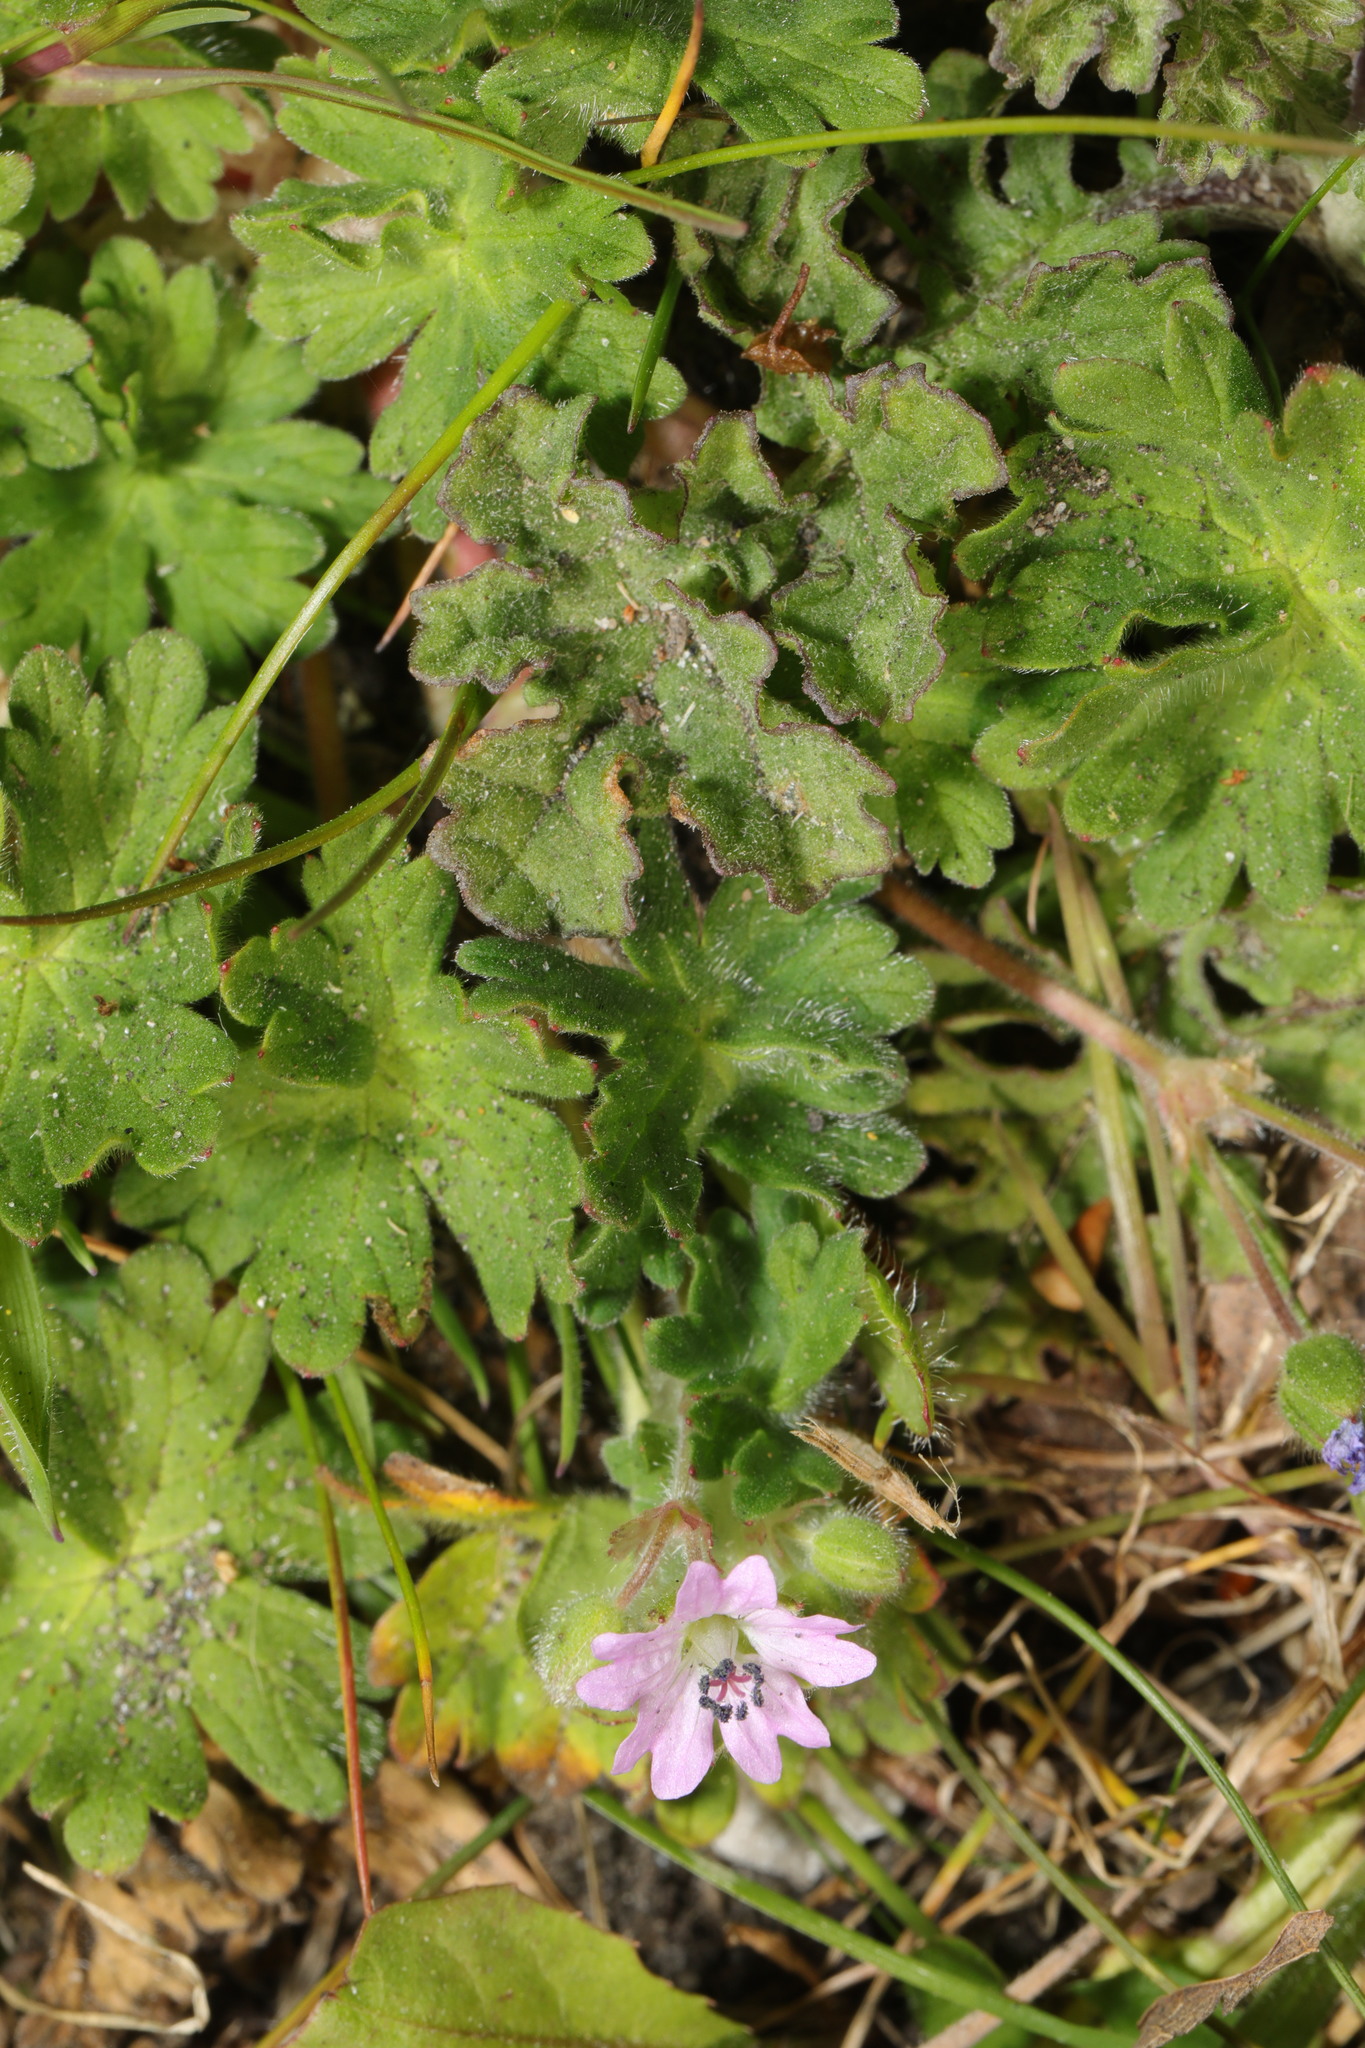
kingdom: Plantae
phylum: Tracheophyta
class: Magnoliopsida
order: Geraniales
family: Geraniaceae
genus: Geranium
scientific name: Geranium molle
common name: Dove's-foot crane's-bill
